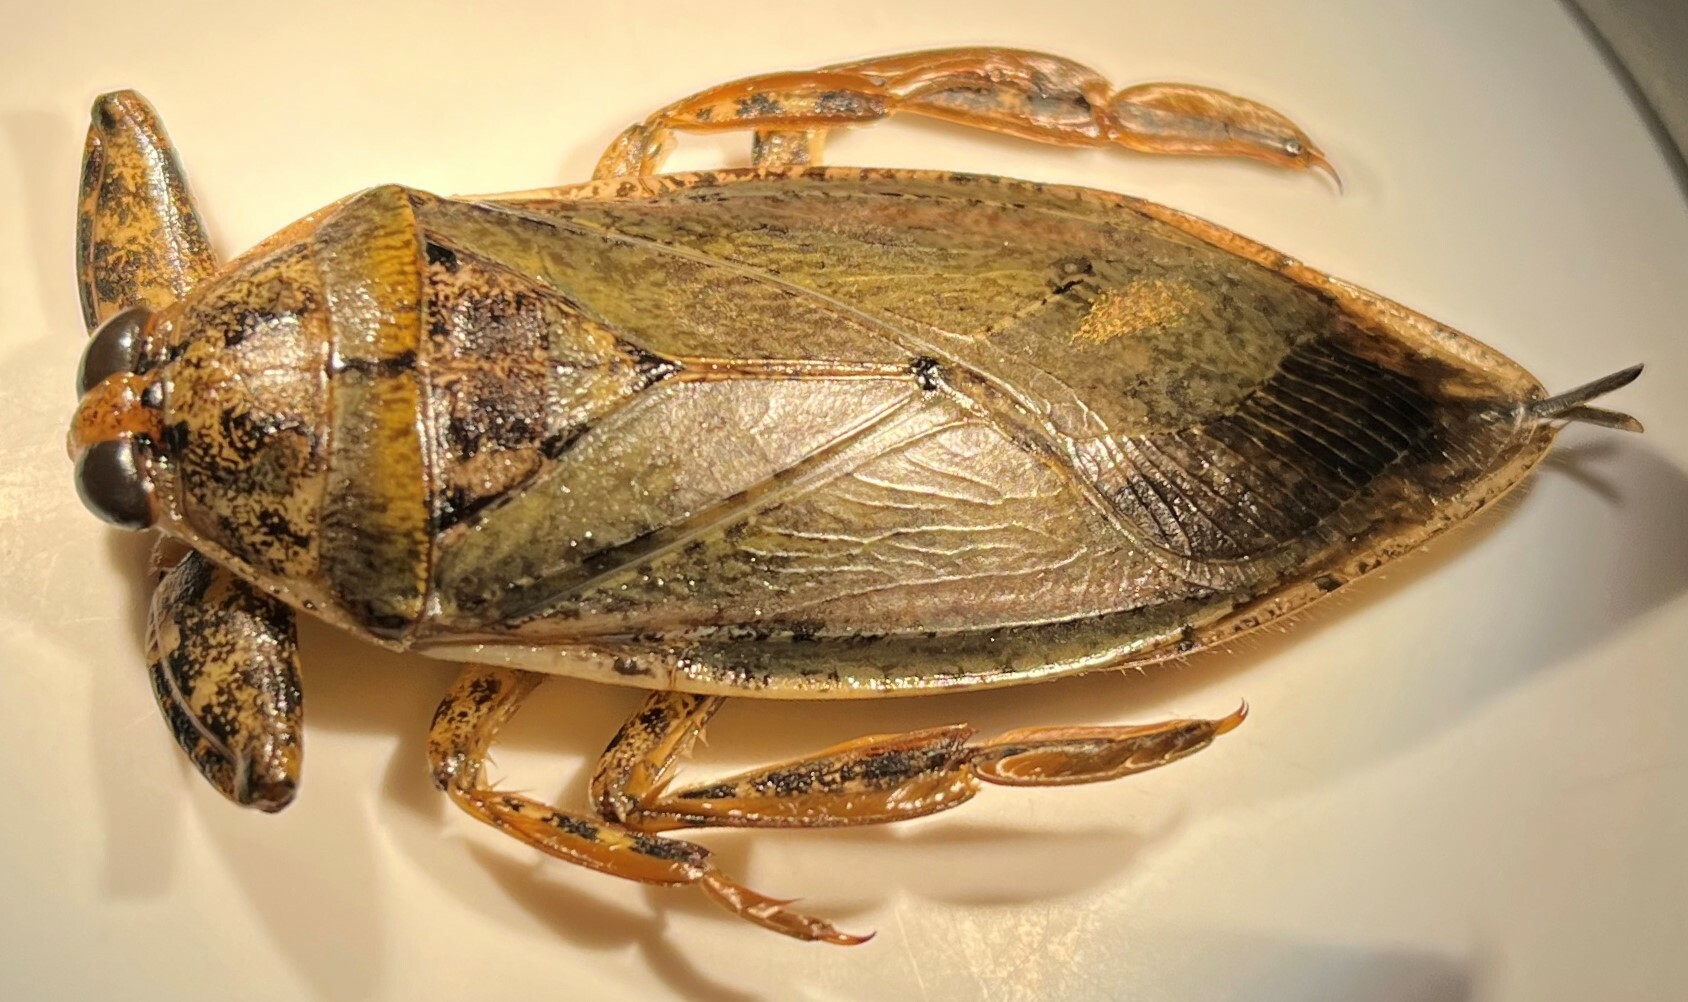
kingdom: Animalia
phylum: Arthropoda
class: Insecta
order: Hemiptera
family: Belostomatidae
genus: Lethocerus
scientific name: Lethocerus medius
